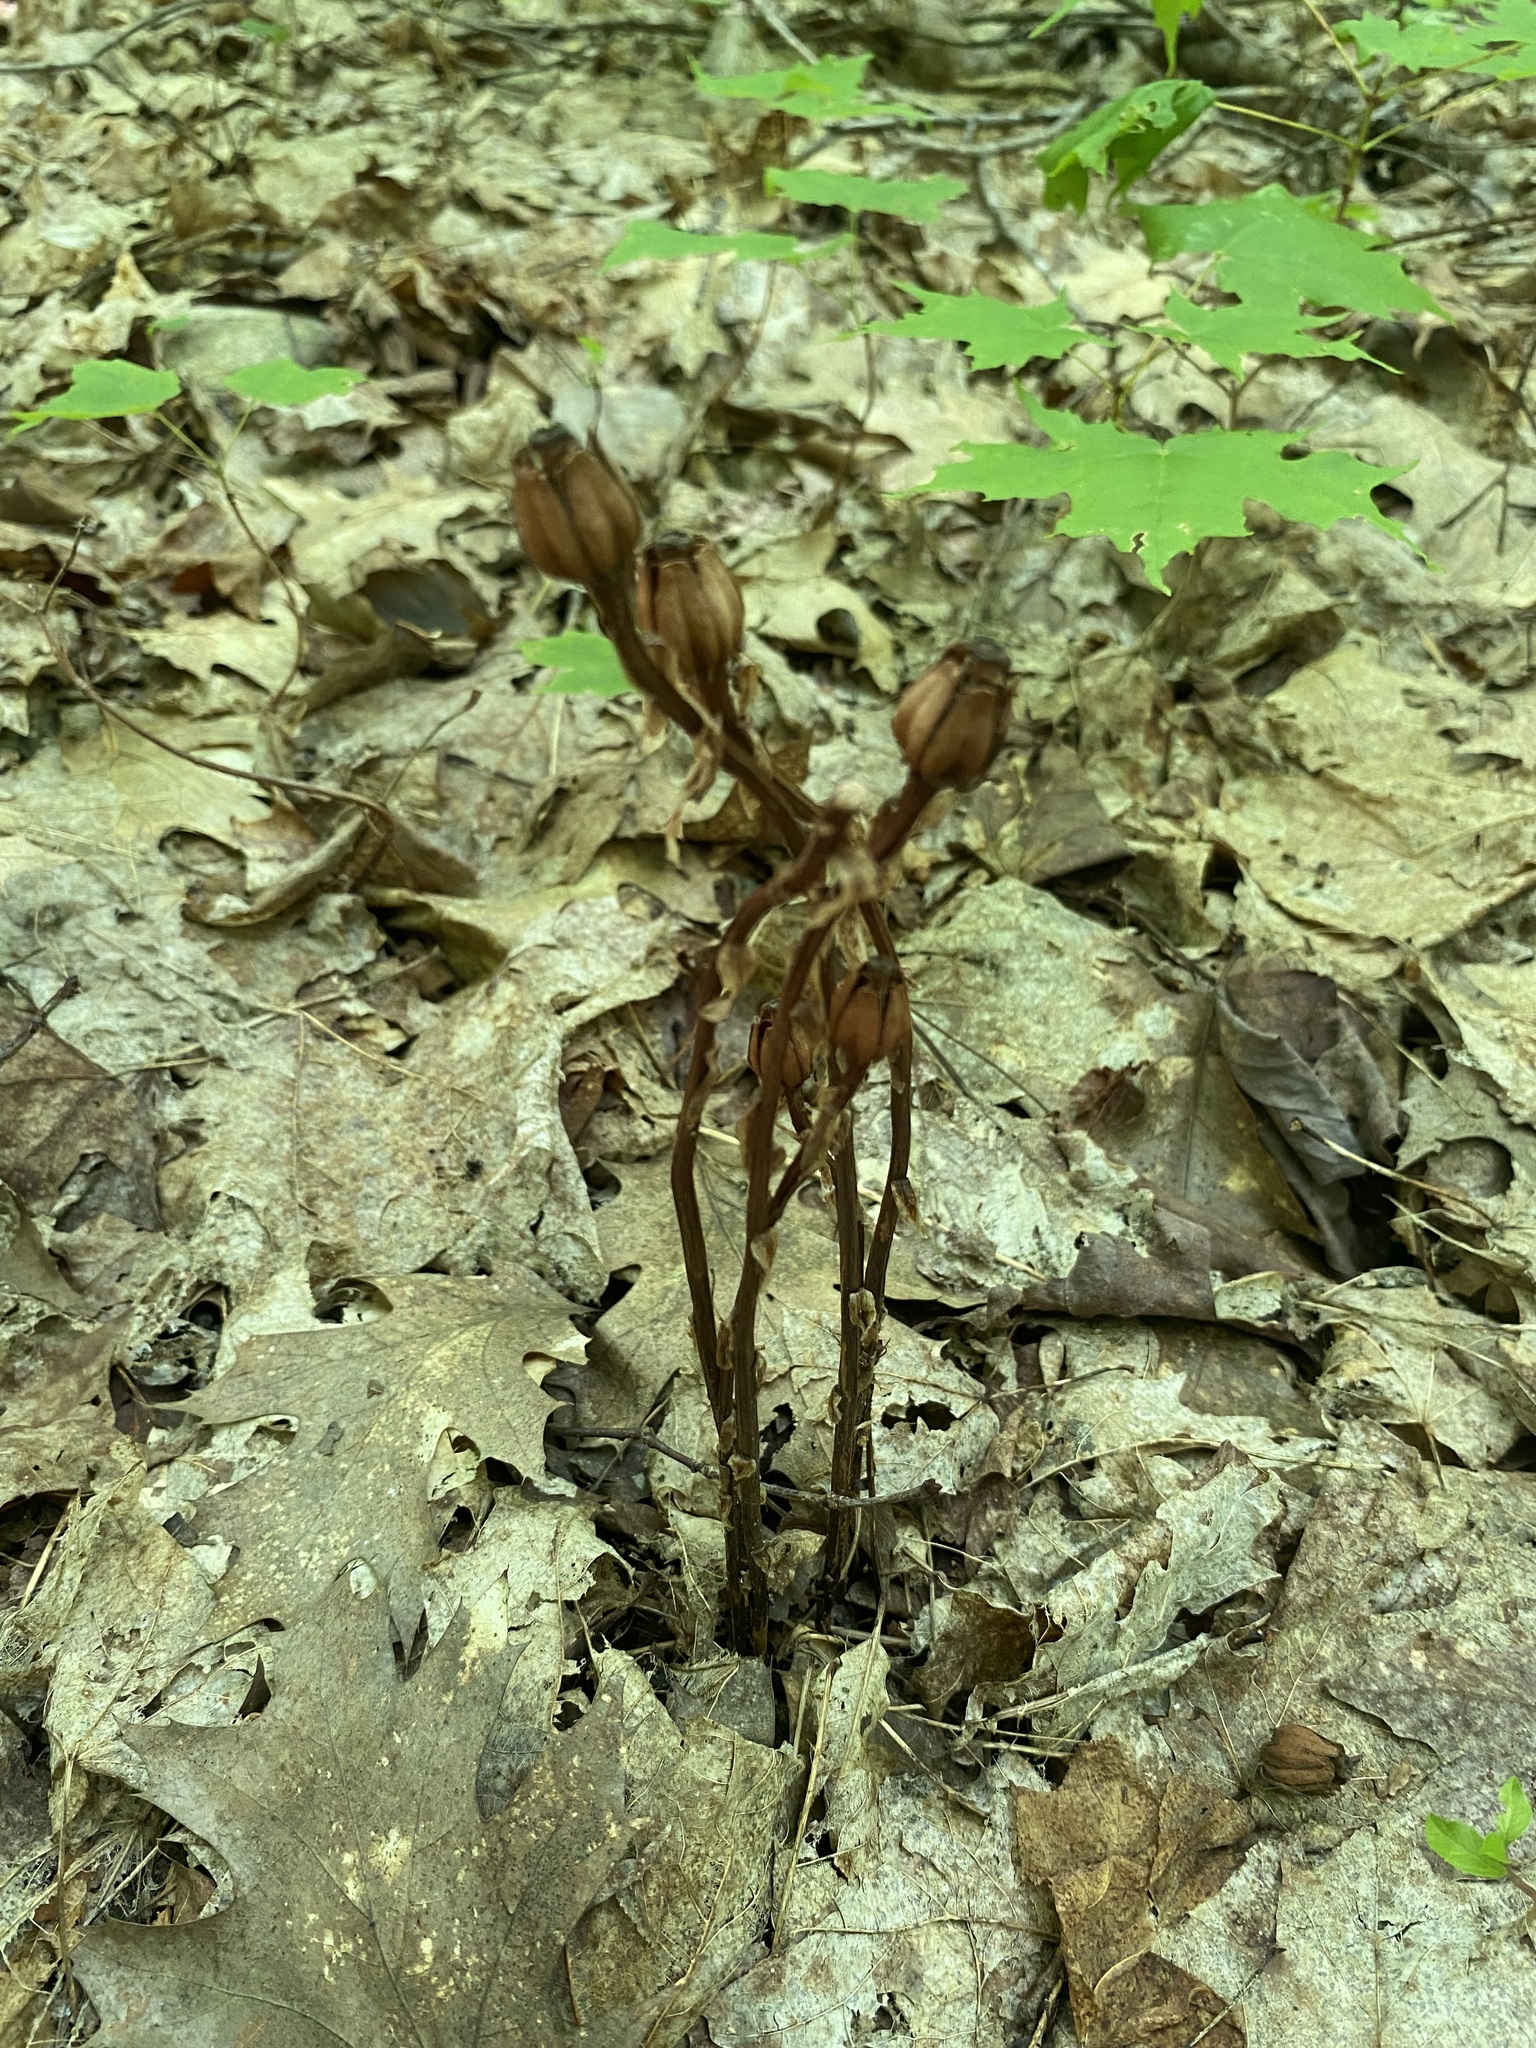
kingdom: Plantae
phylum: Tracheophyta
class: Magnoliopsida
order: Ericales
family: Ericaceae
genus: Monotropa
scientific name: Monotropa uniflora
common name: Convulsion root
